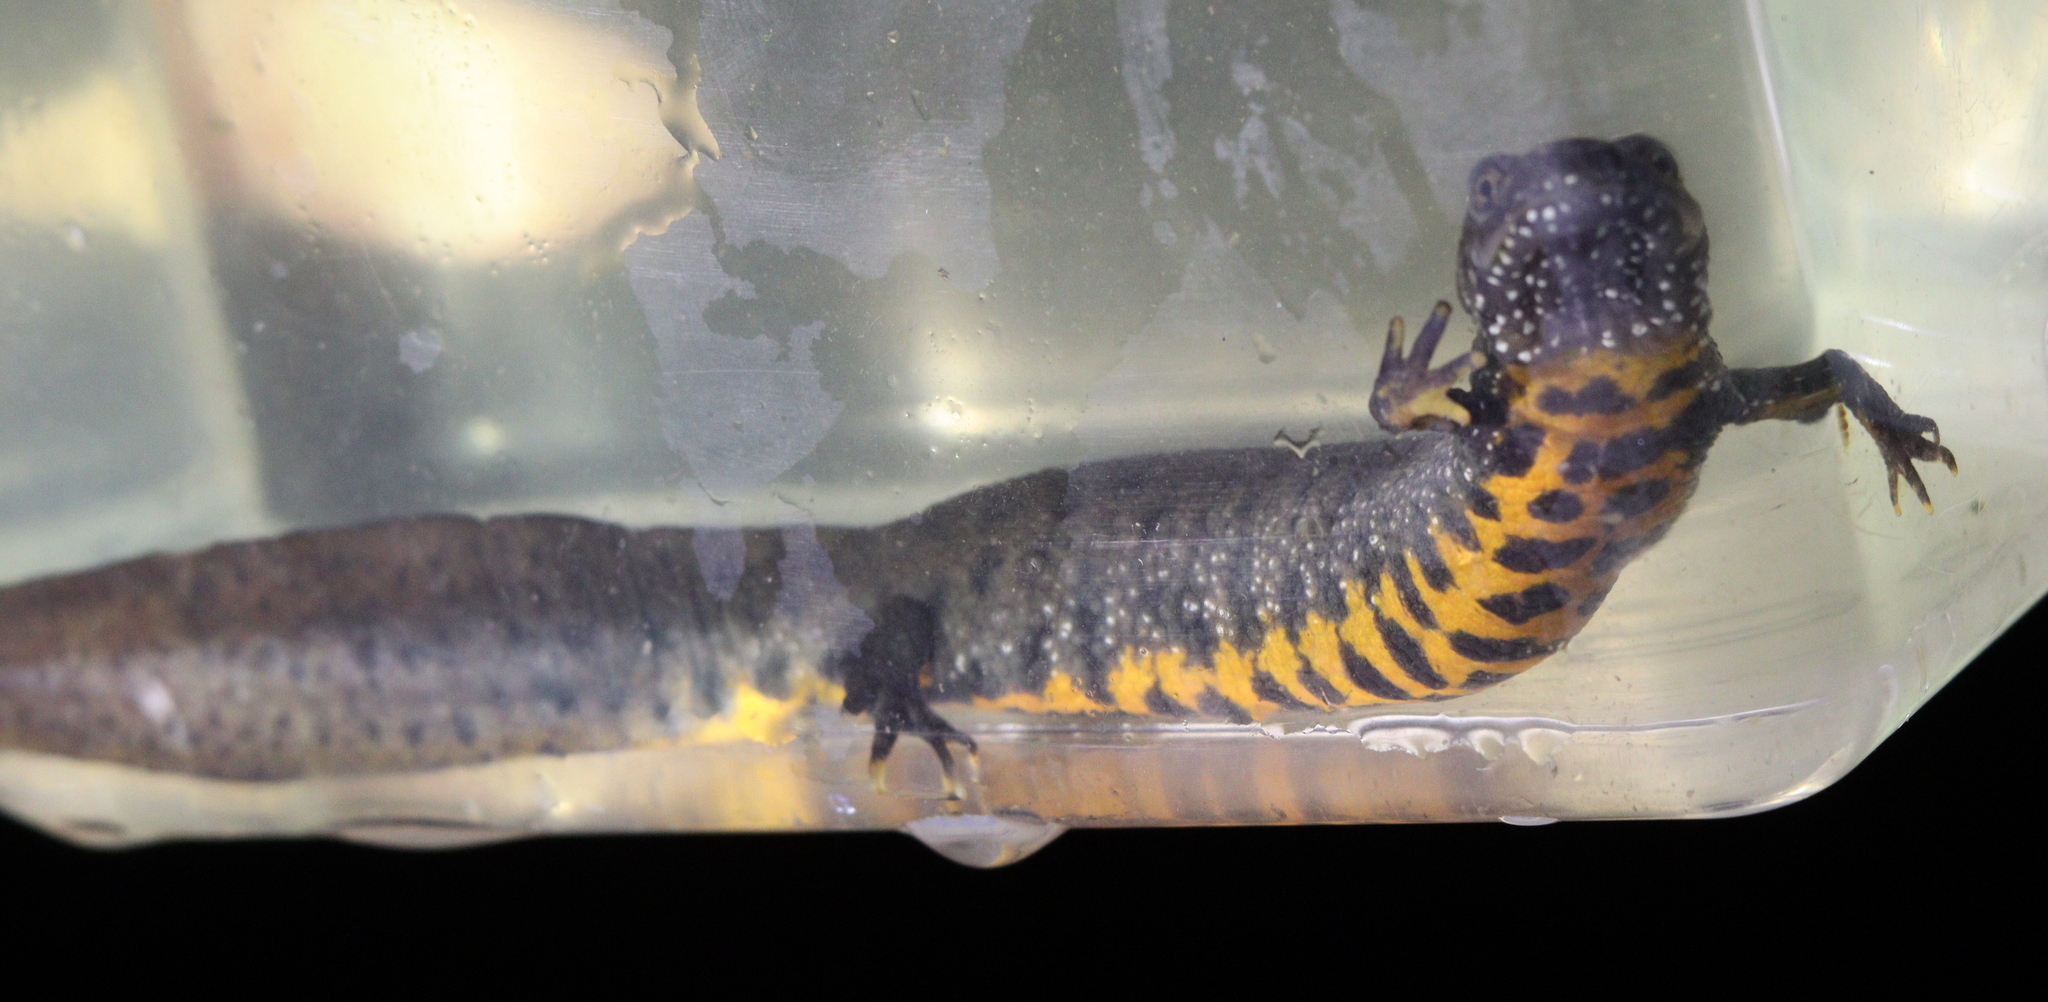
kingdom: Animalia
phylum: Chordata
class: Amphibia
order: Caudata
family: Salamandridae
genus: Triturus
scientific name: Triturus dobrogicus
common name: Danube crested newt
